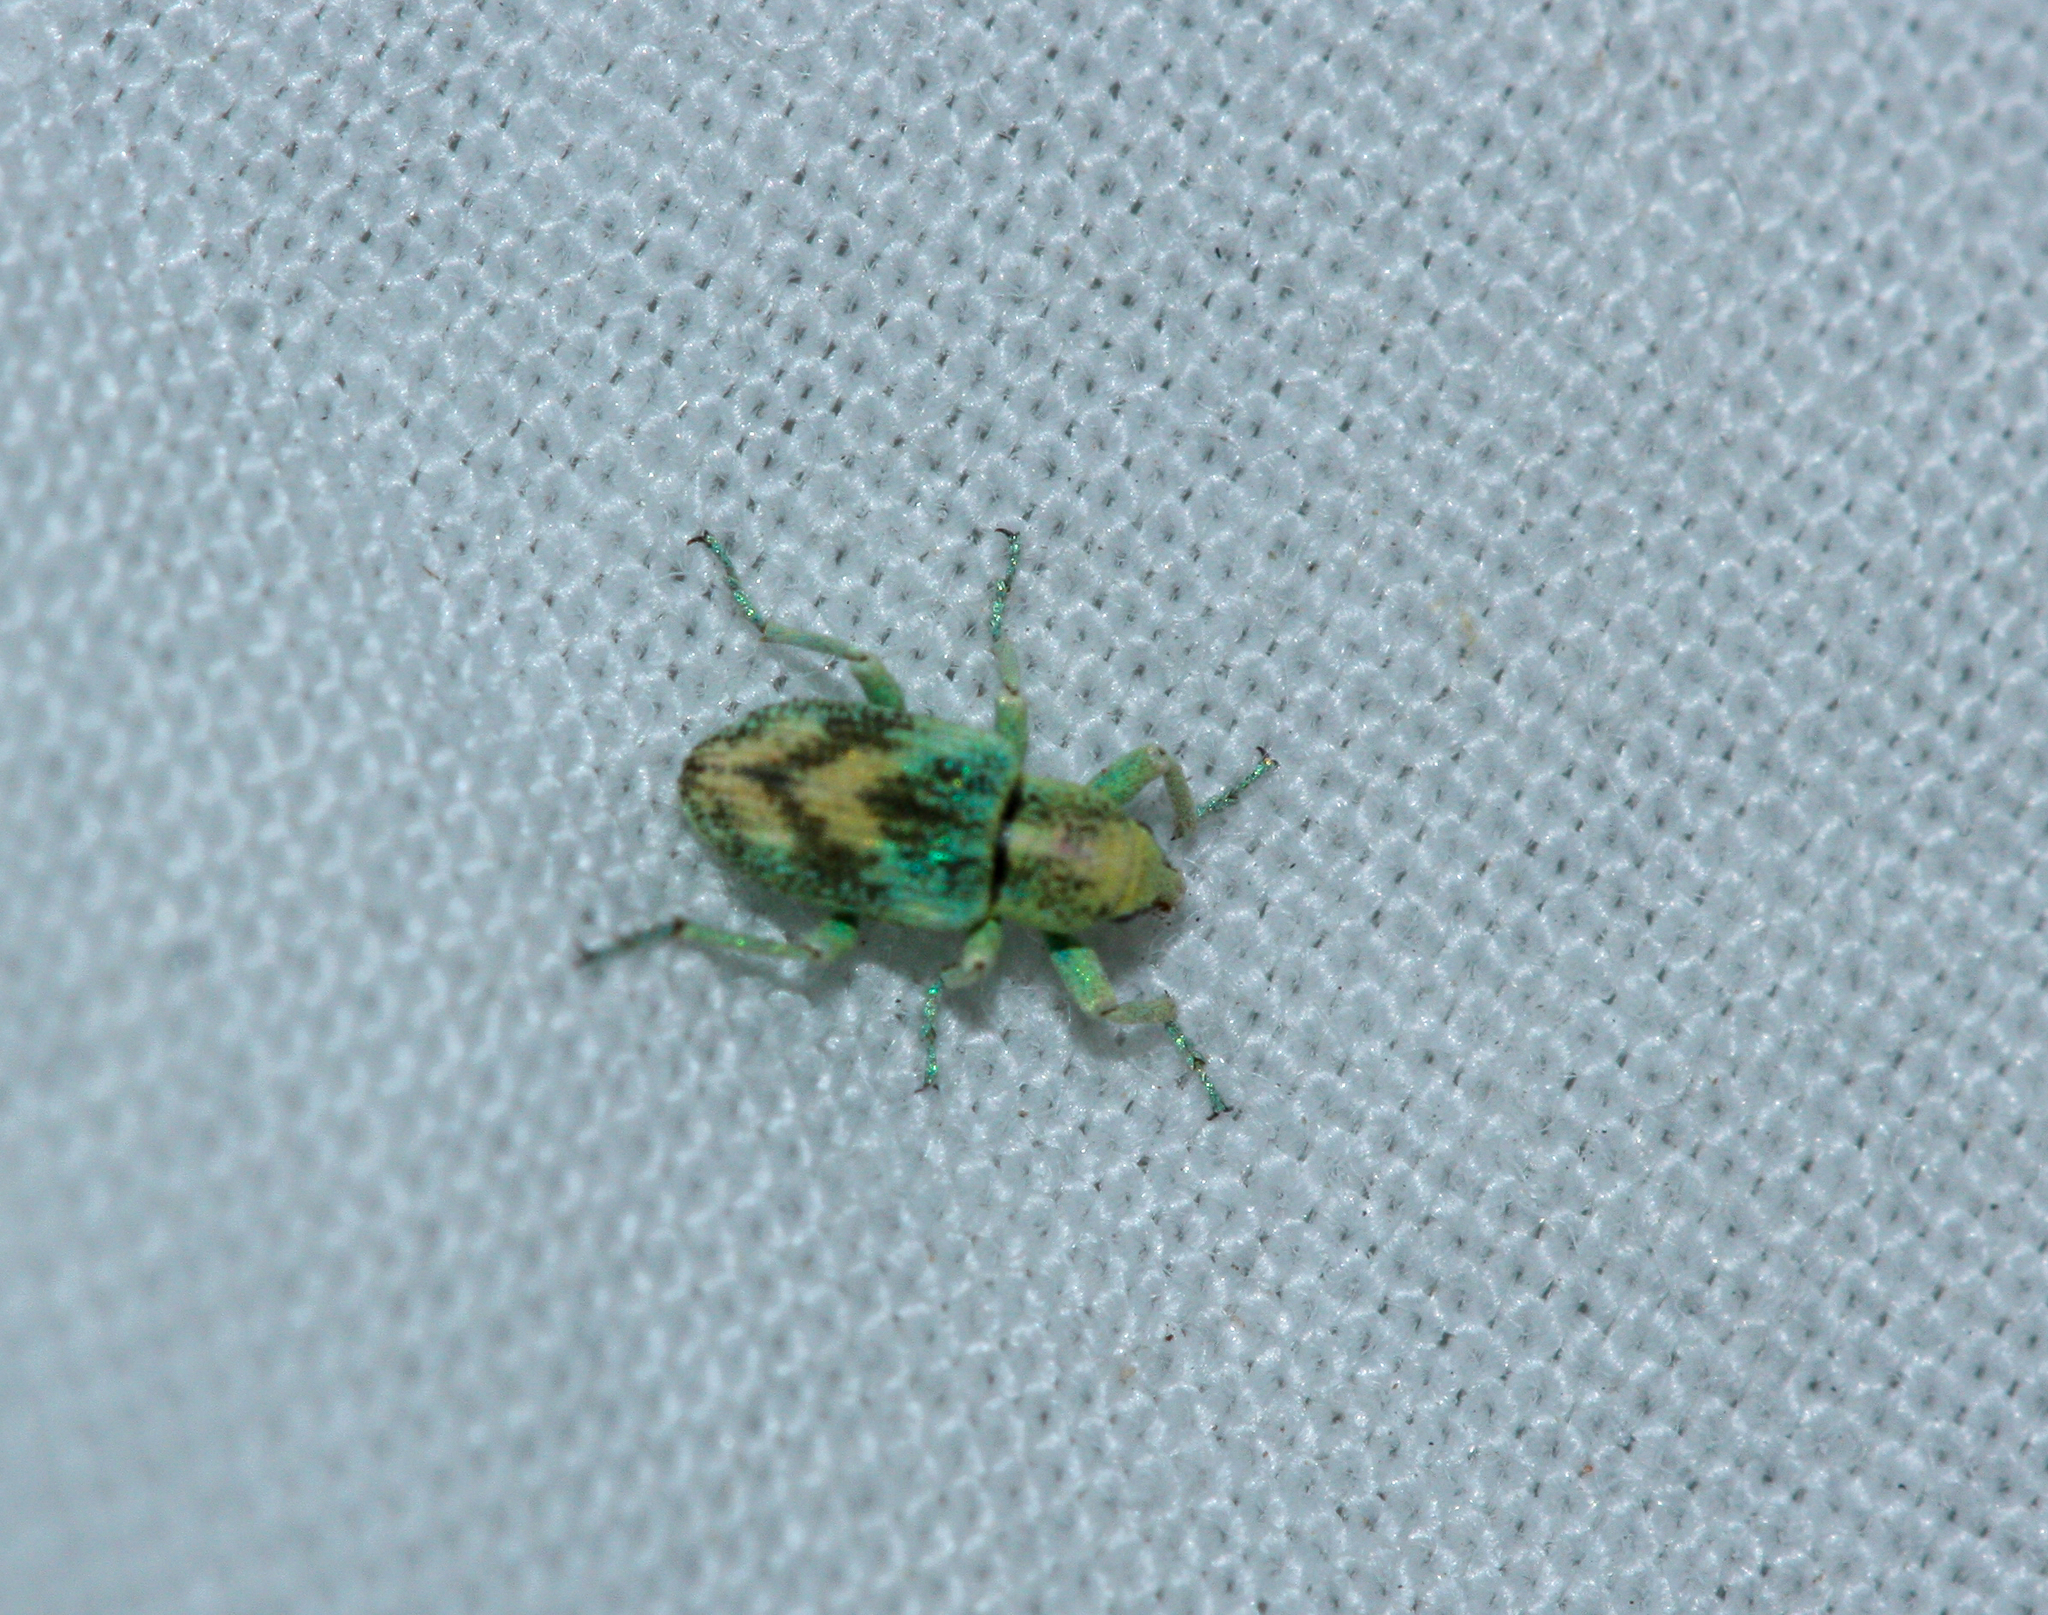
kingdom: Animalia
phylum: Arthropoda
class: Insecta
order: Coleoptera
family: Curculionidae
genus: Coniatus
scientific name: Coniatus splendidulus
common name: Splendid tamarisk weevil
